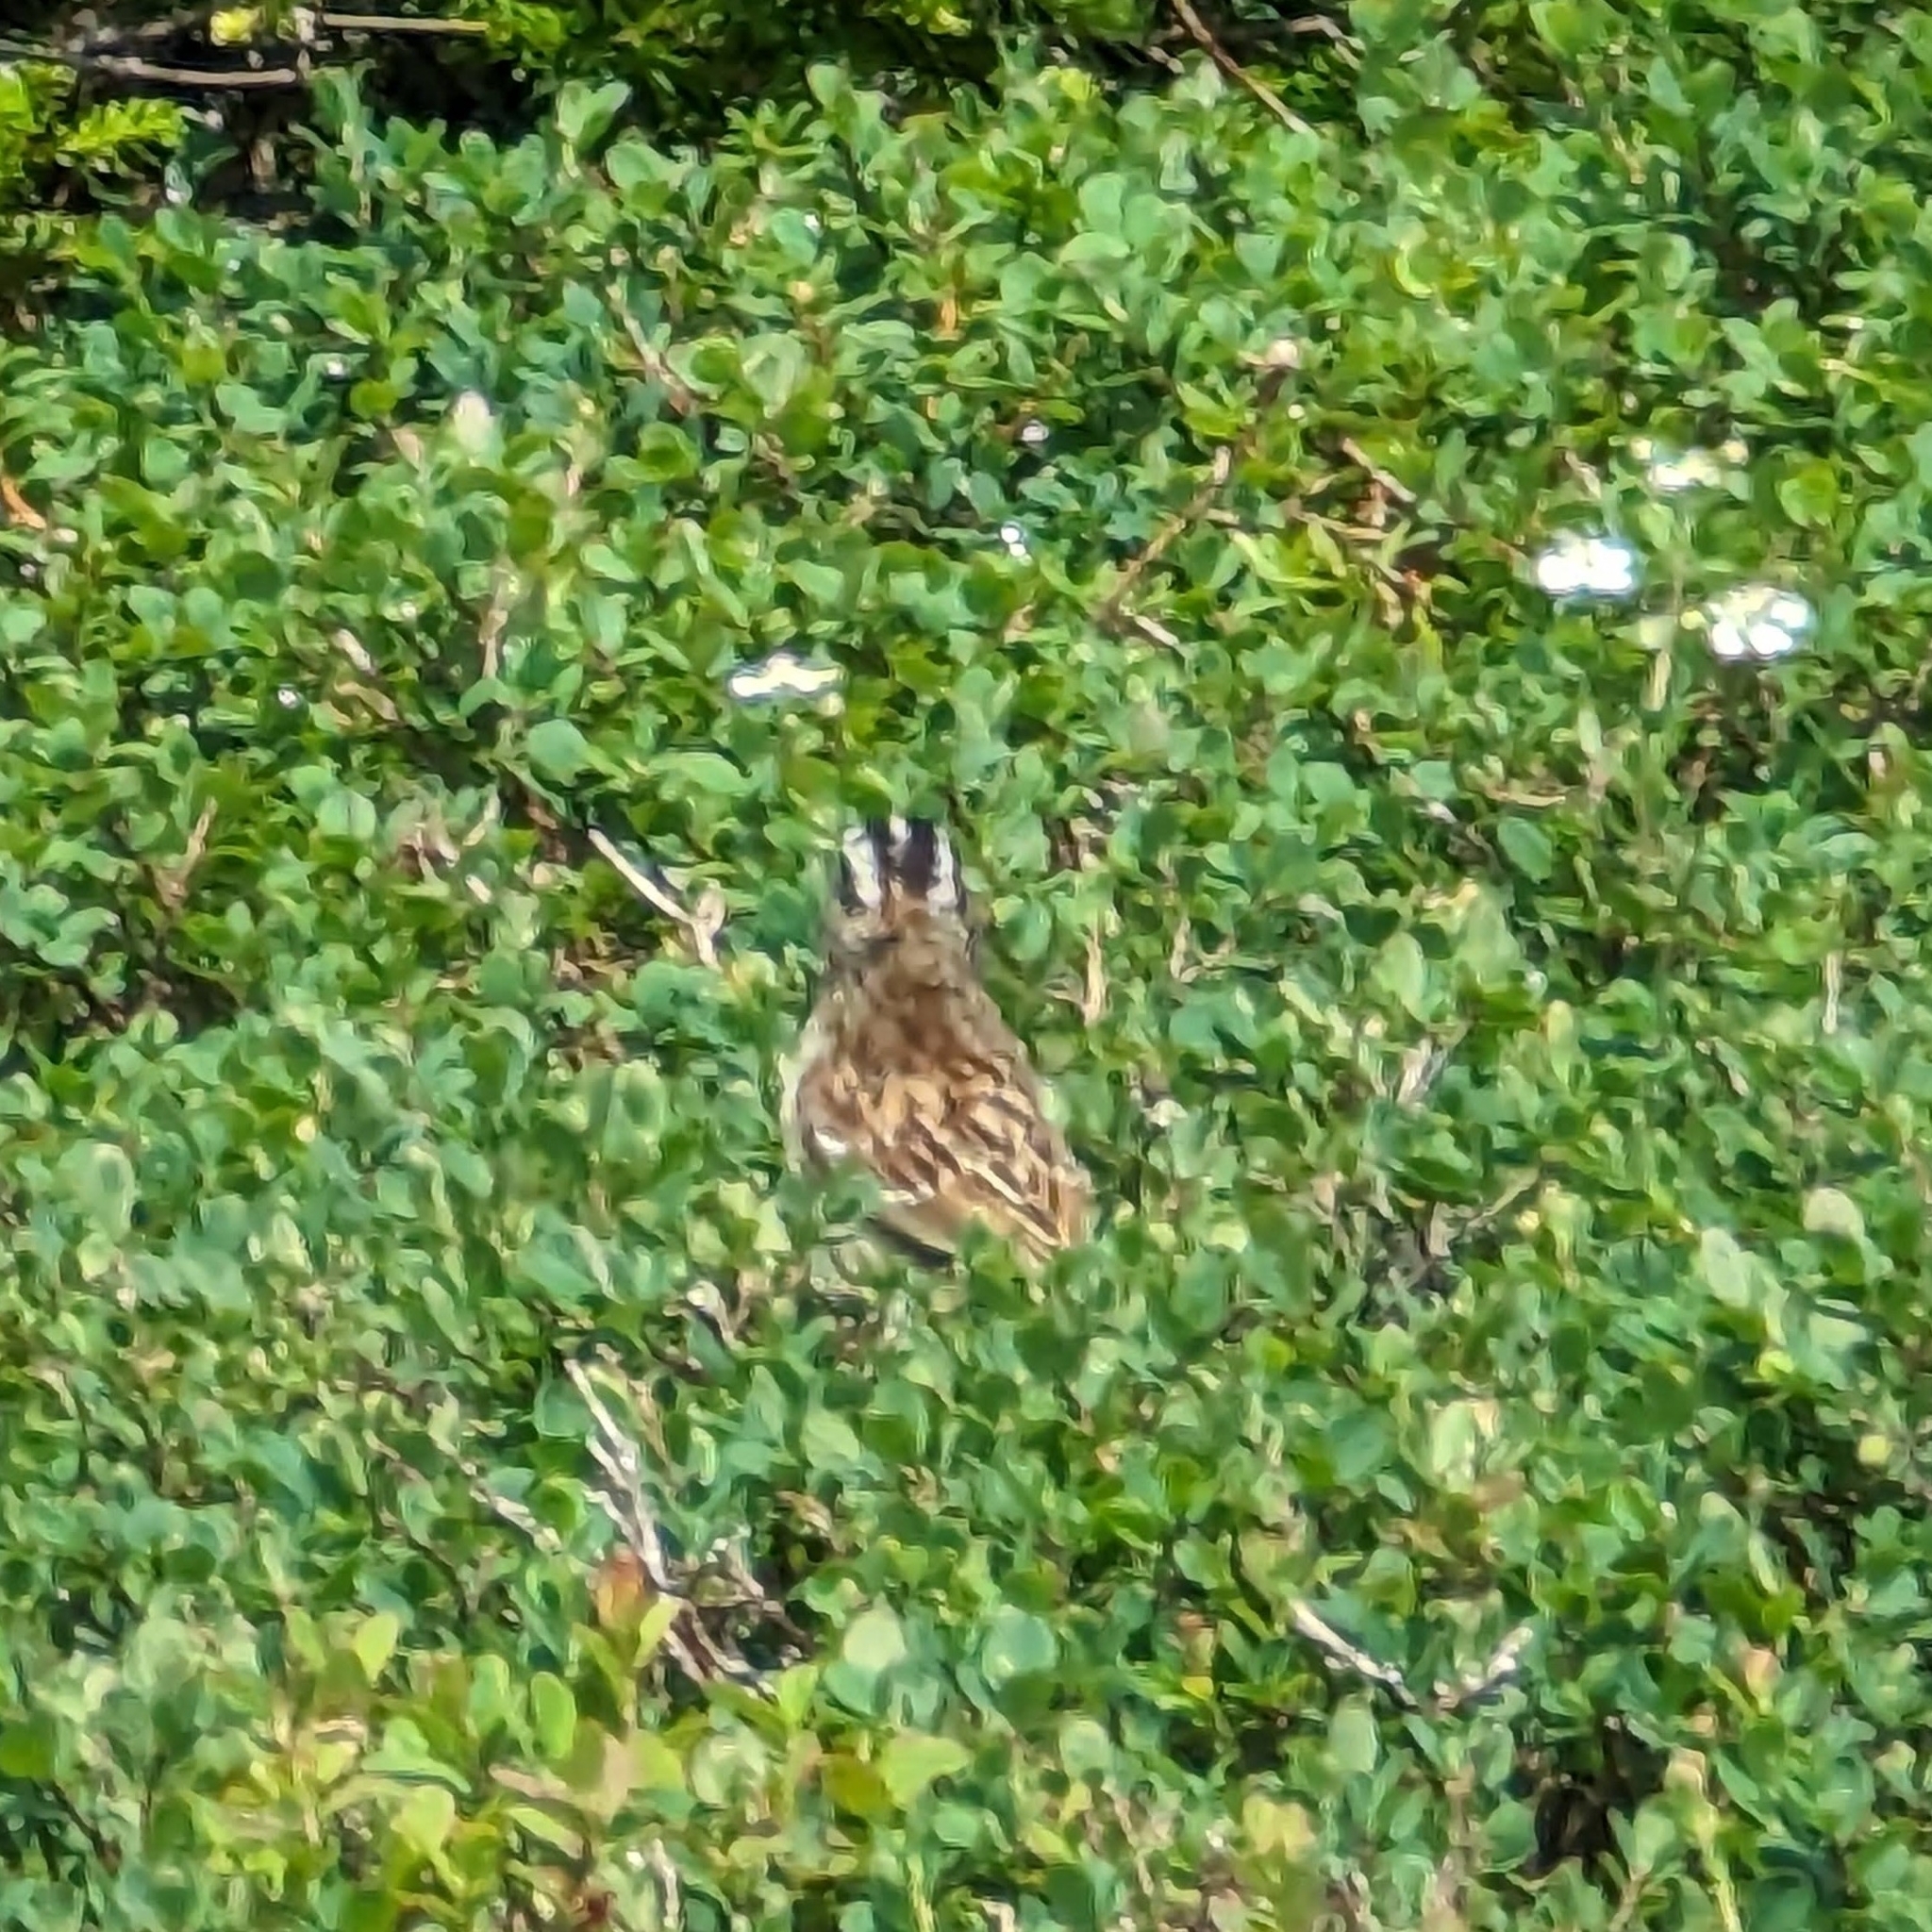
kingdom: Animalia
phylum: Chordata
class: Aves
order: Passeriformes
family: Passerellidae
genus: Zonotrichia
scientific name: Zonotrichia albicollis
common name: White-throated sparrow
